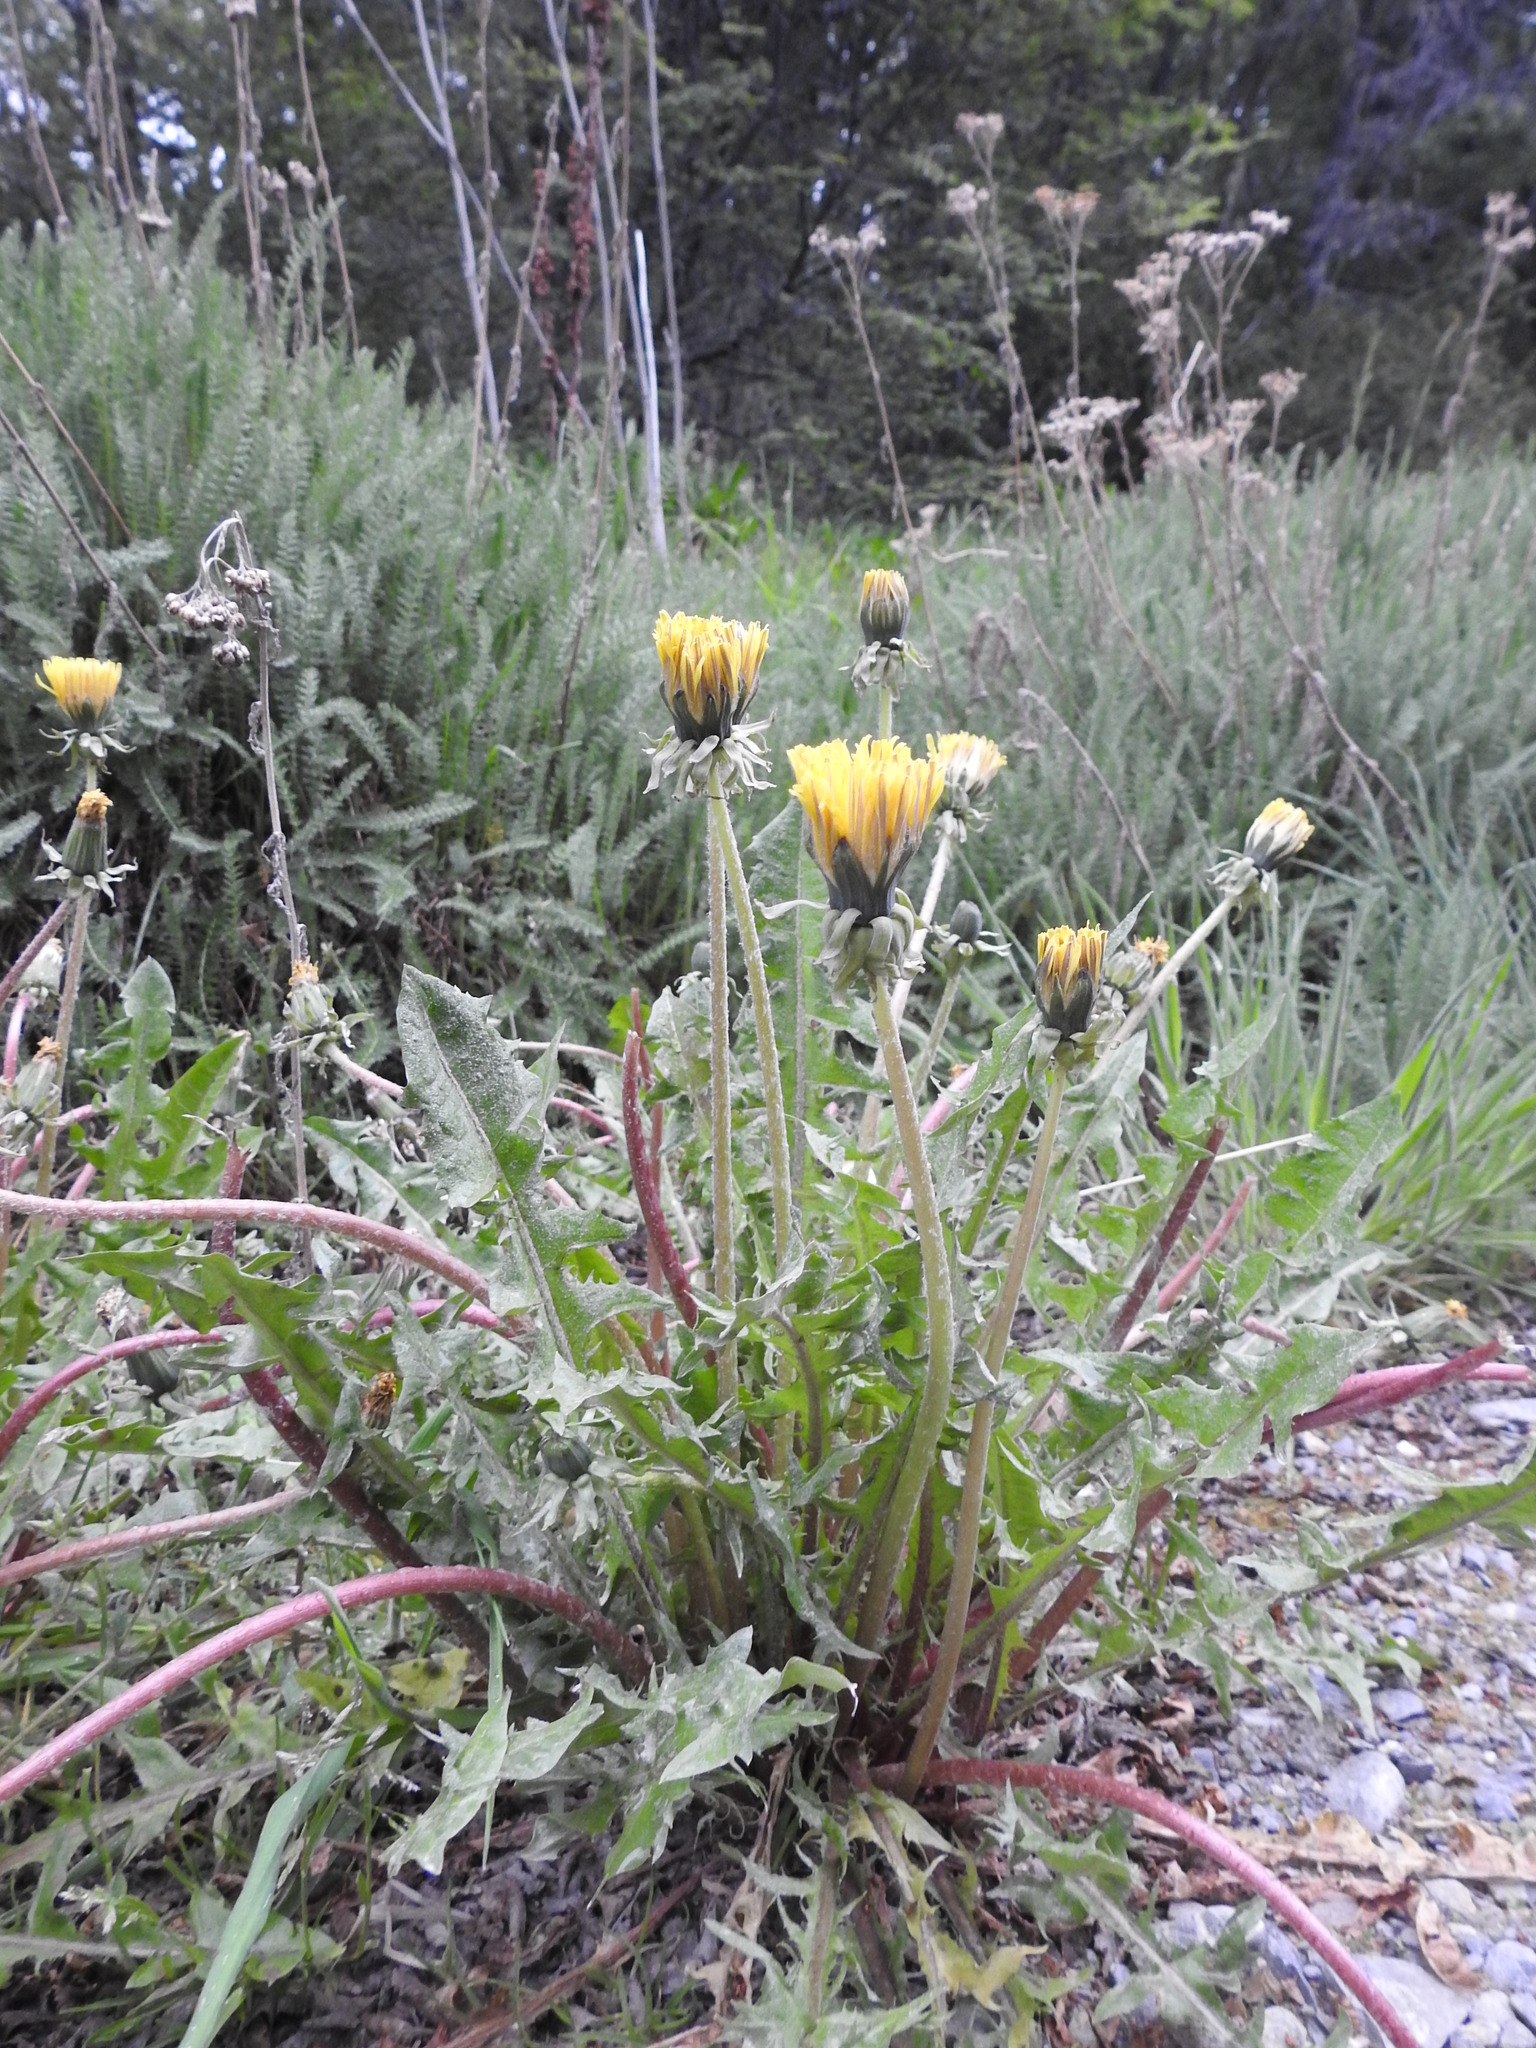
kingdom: Plantae
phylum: Tracheophyta
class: Magnoliopsida
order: Asterales
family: Asteraceae
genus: Taraxacum
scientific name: Taraxacum officinale
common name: Common dandelion
